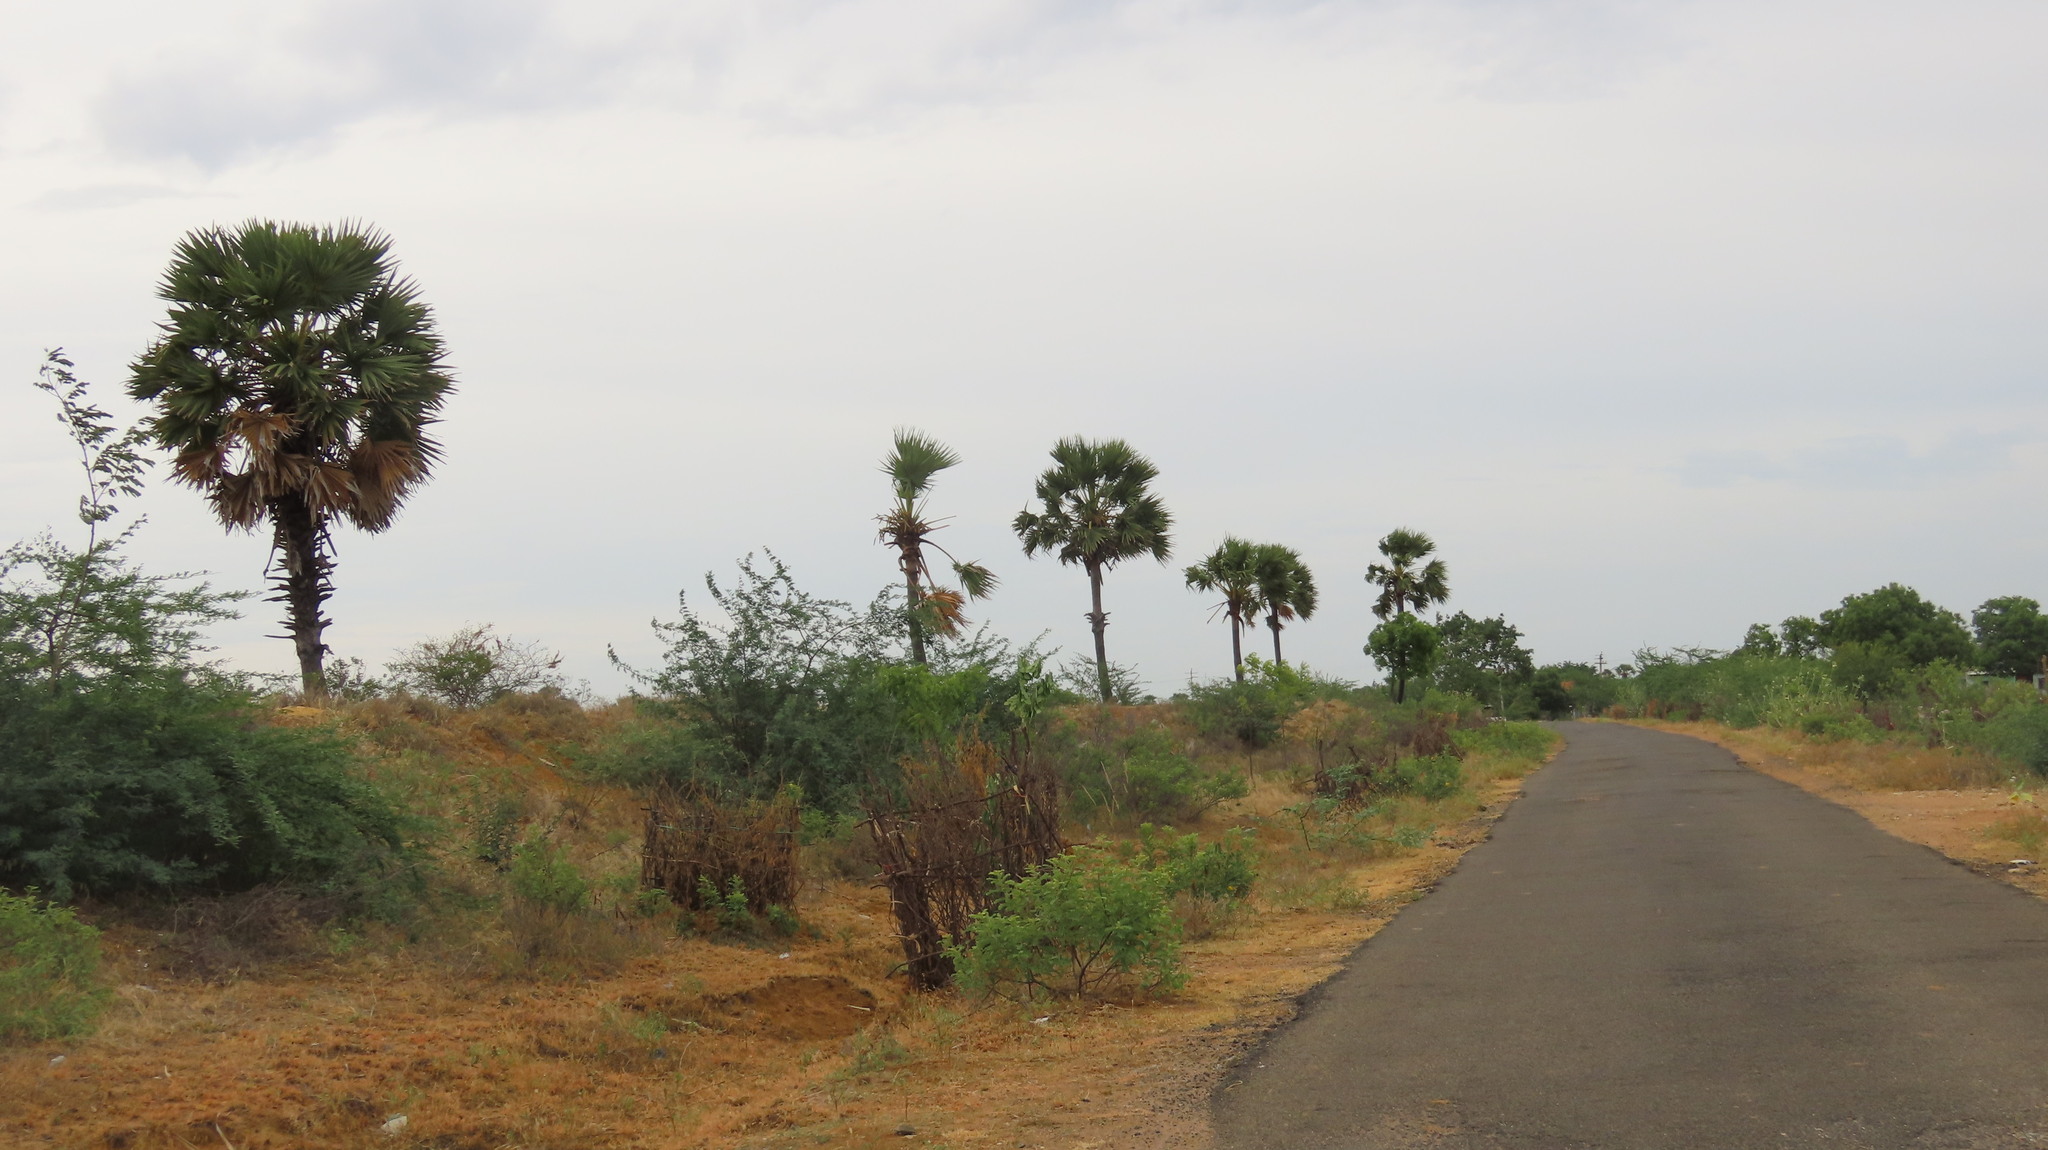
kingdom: Plantae
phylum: Tracheophyta
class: Liliopsida
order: Arecales
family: Arecaceae
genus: Borassus
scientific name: Borassus flabellifer
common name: Palmyra palm
